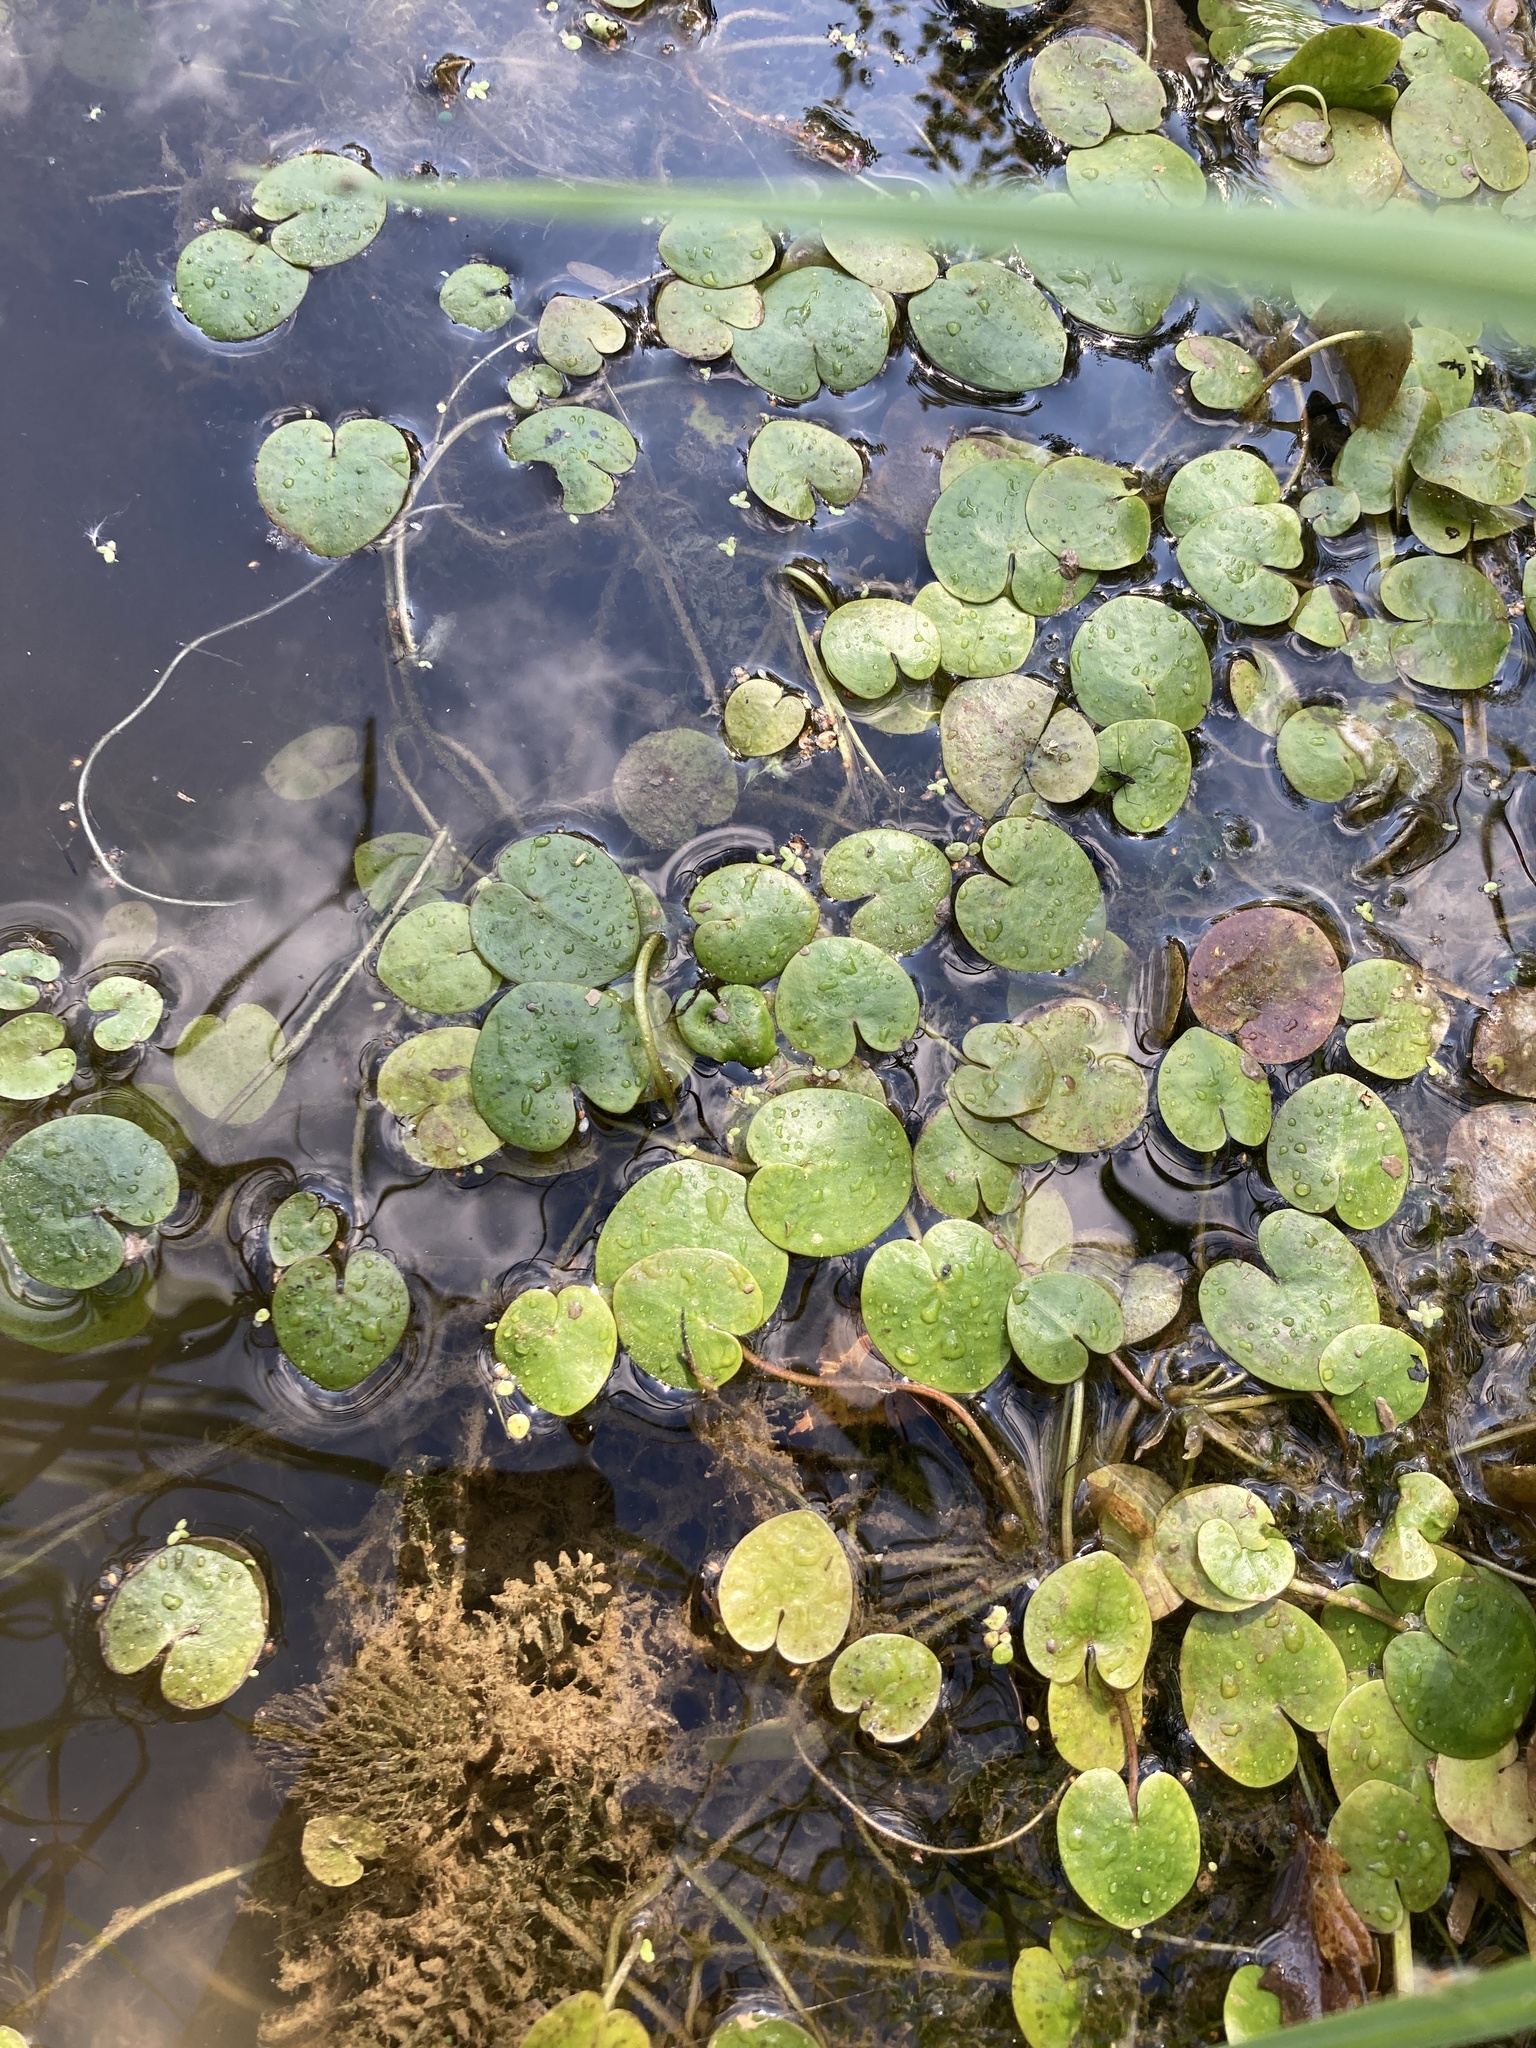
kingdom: Plantae
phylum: Tracheophyta
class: Liliopsida
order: Alismatales
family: Hydrocharitaceae
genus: Hydrocharis
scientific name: Hydrocharis morsus-ranae
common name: Frogbit
